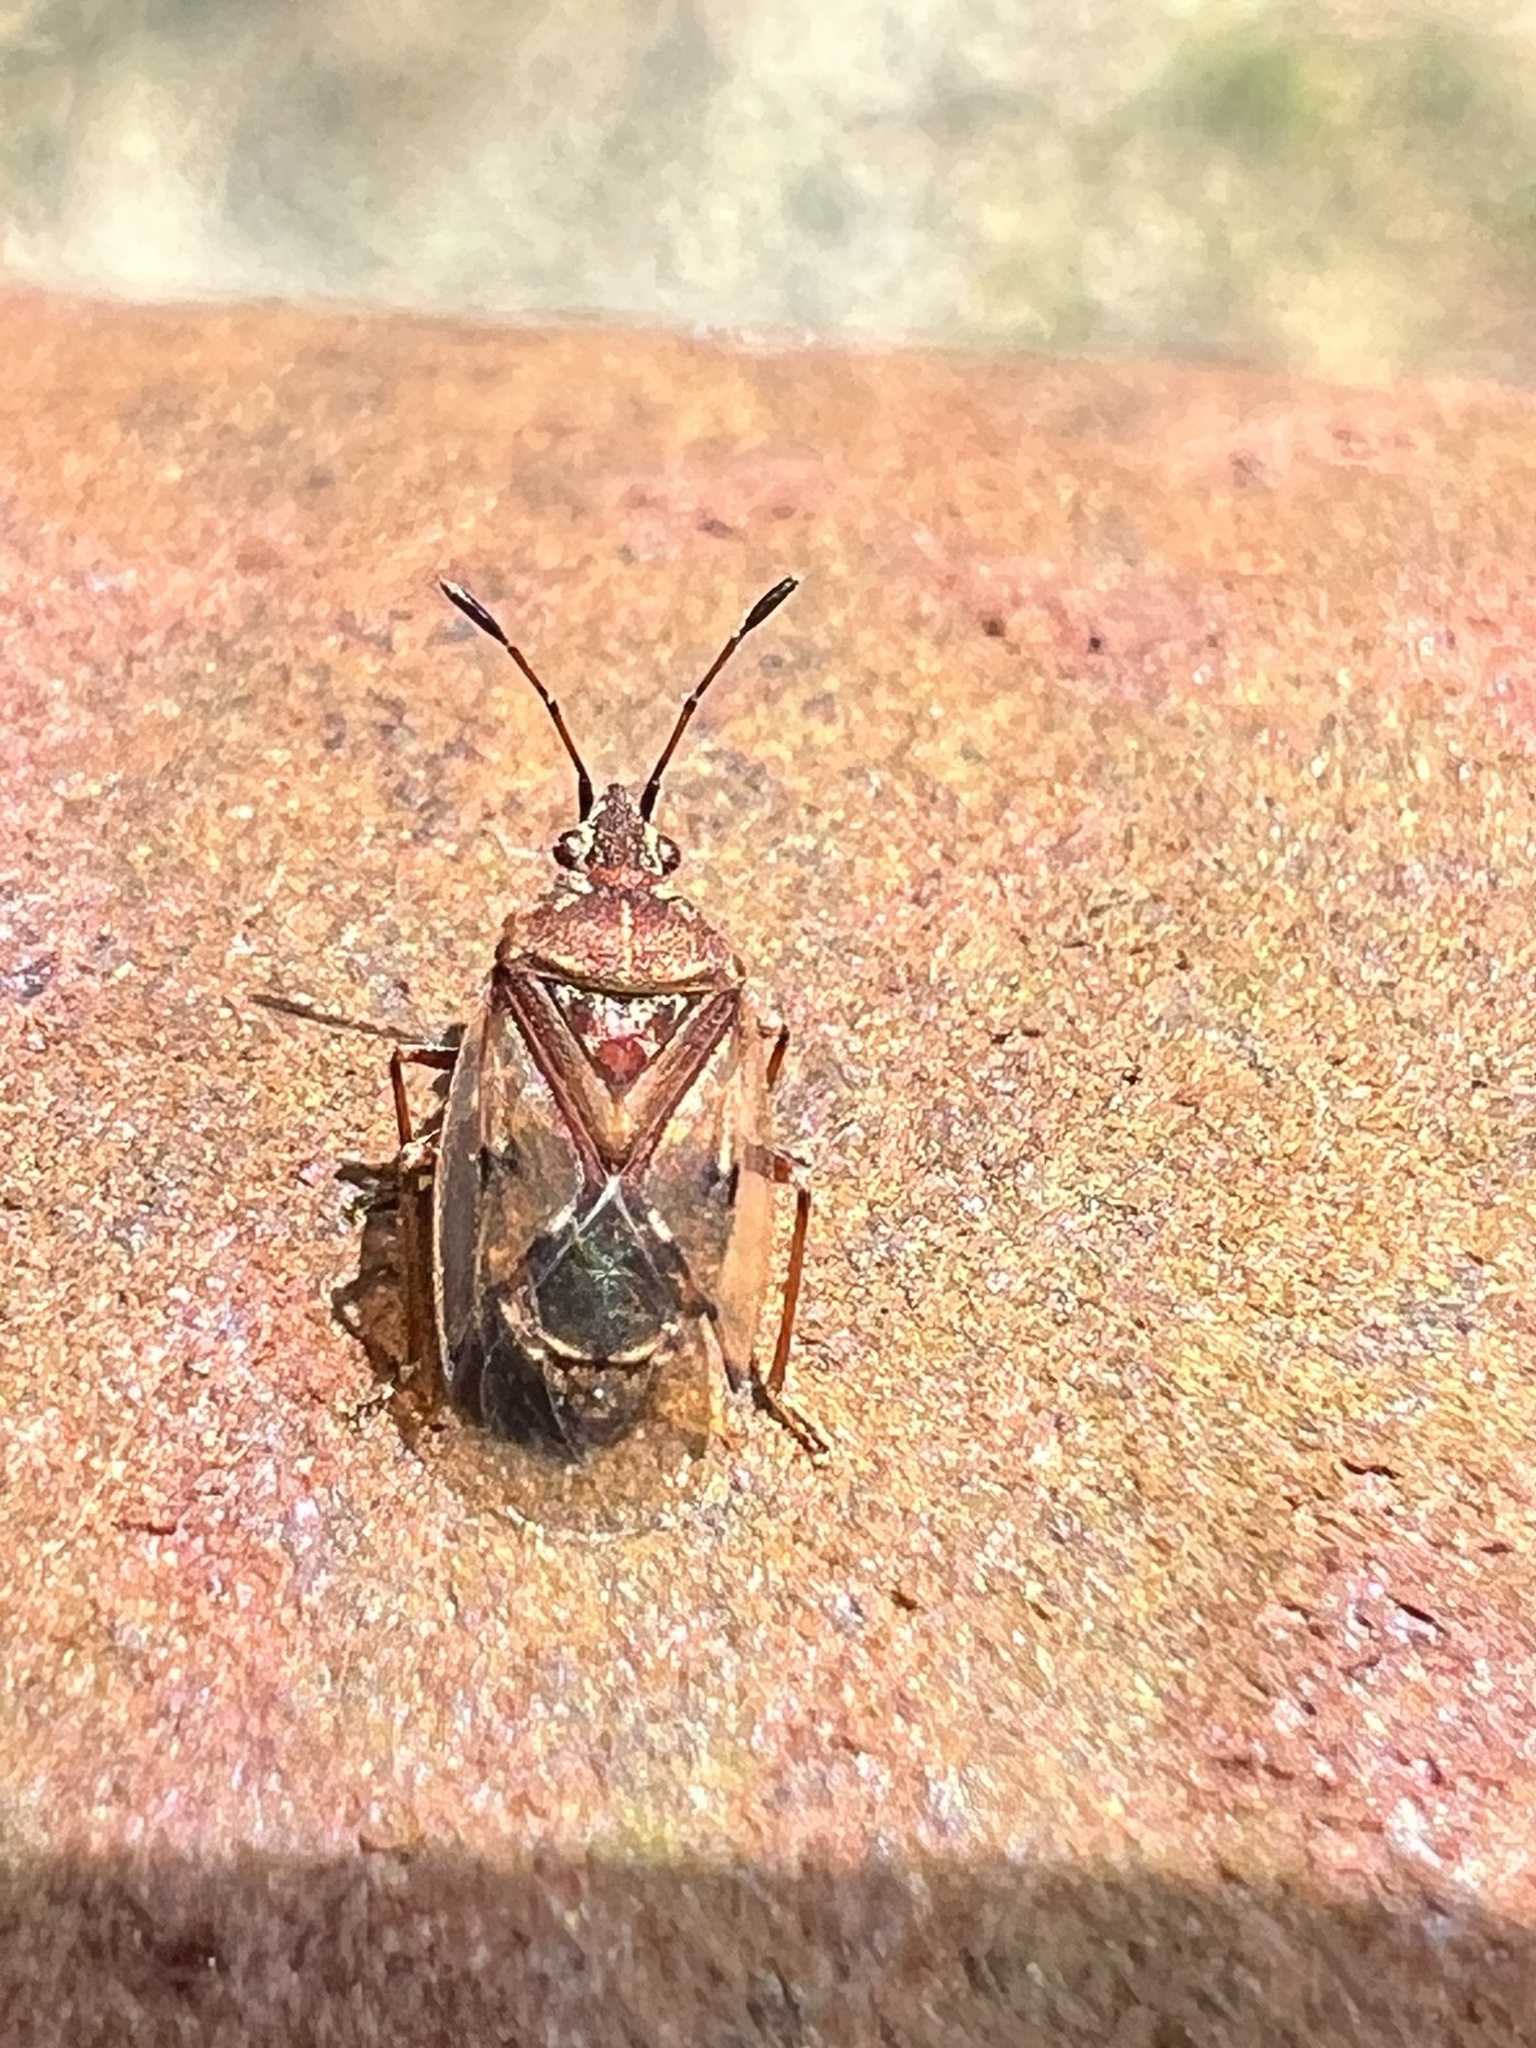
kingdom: Animalia
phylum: Arthropoda
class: Insecta
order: Hemiptera
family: Lygaeidae
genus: Kleidocerys
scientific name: Kleidocerys resedae
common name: Birch catkin bug
